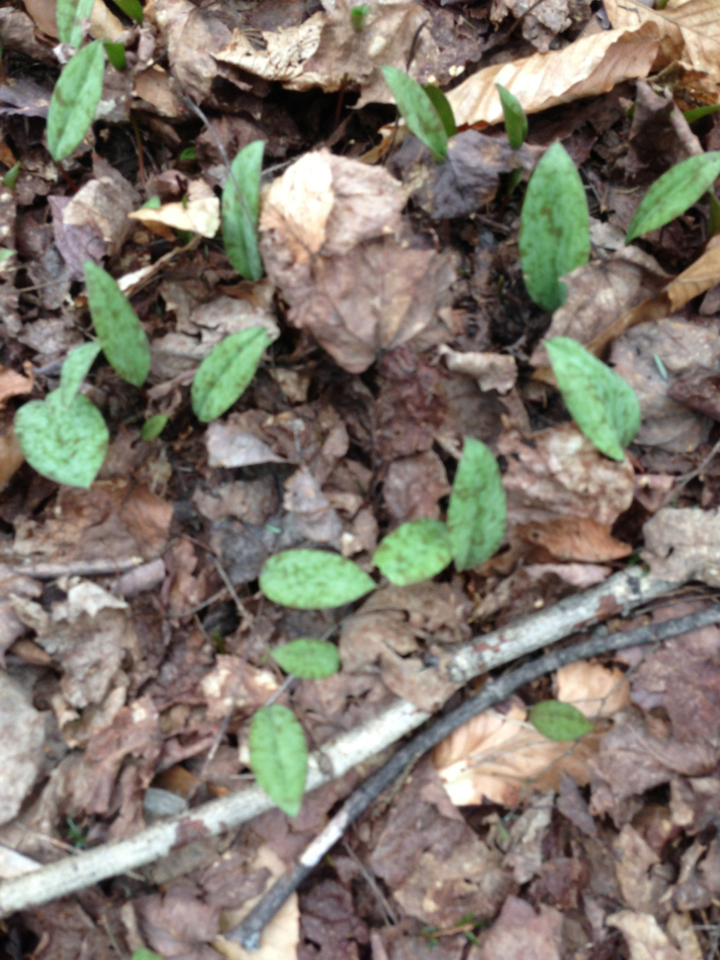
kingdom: Plantae
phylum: Tracheophyta
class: Liliopsida
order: Liliales
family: Liliaceae
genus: Erythronium
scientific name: Erythronium americanum
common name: Yellow adder's-tongue
